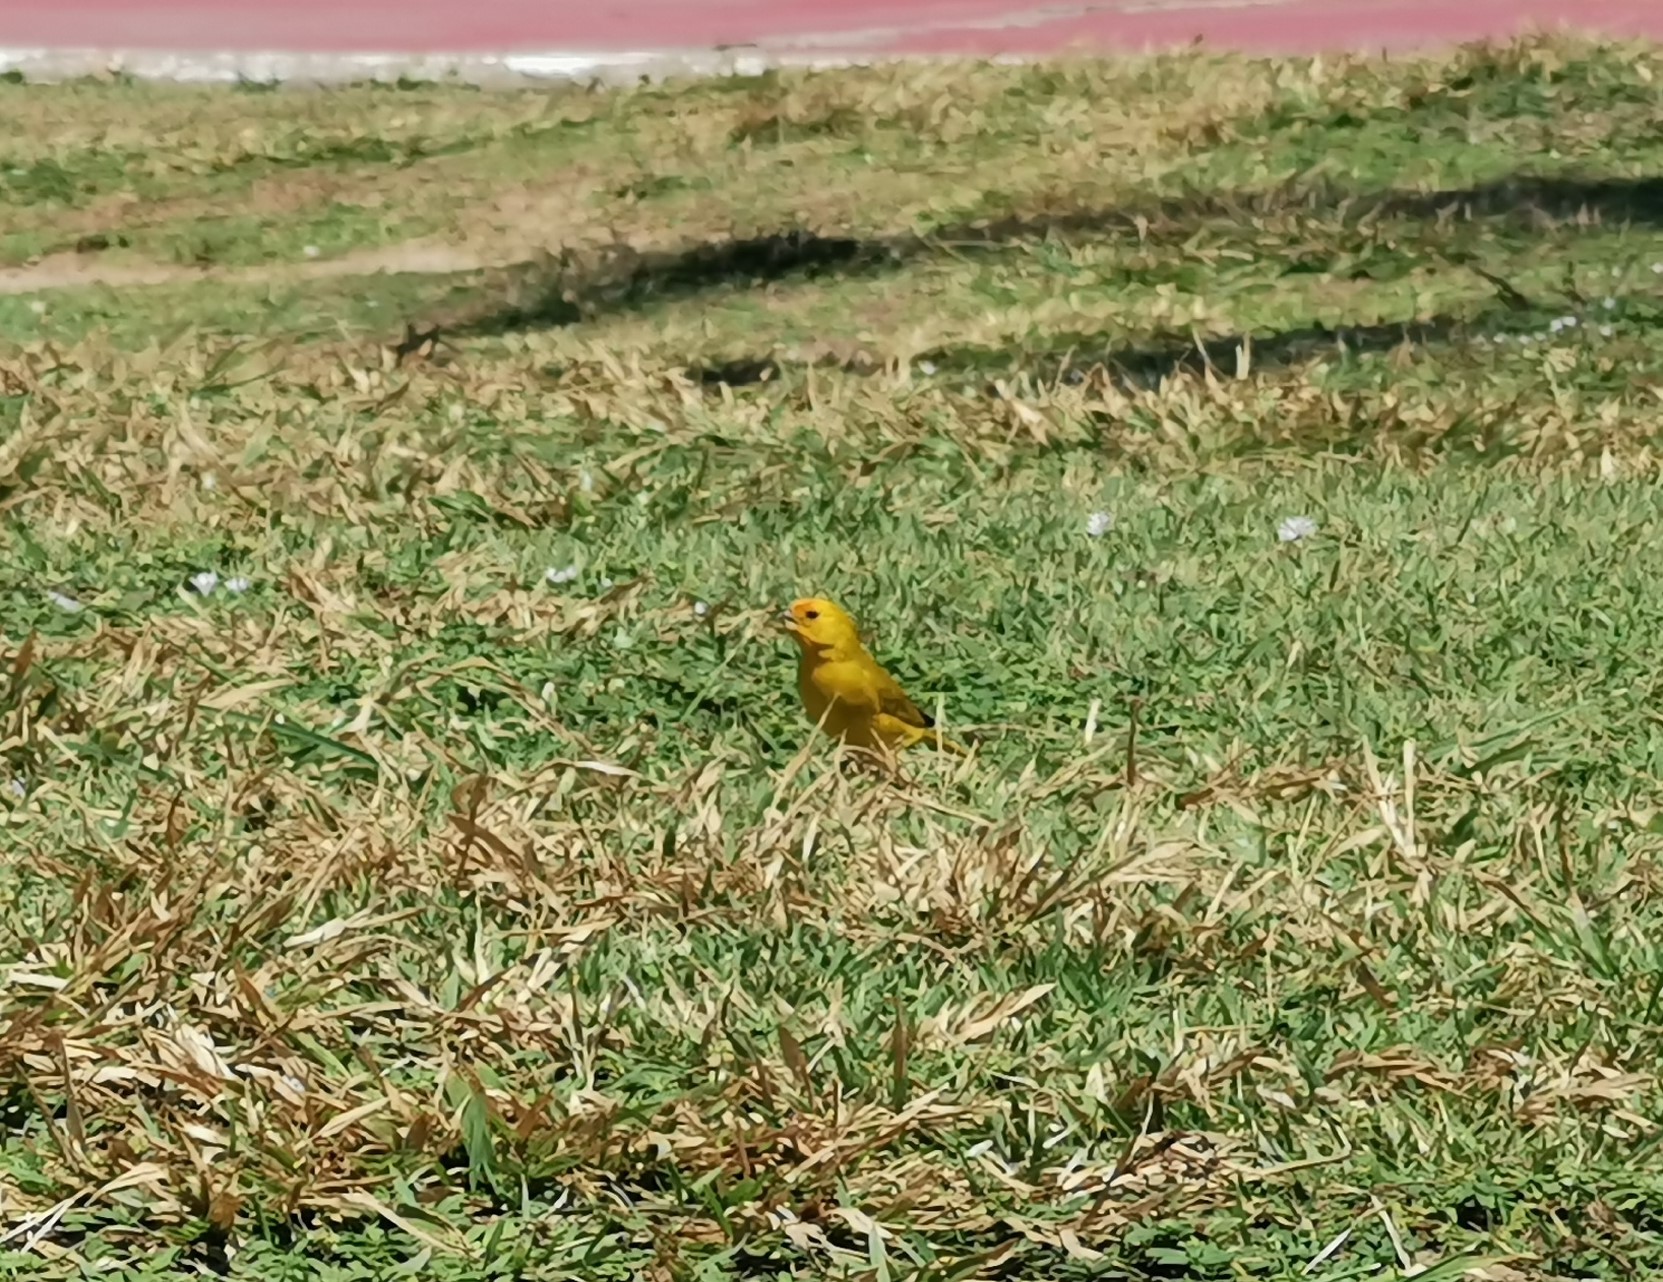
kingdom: Animalia
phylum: Chordata
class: Aves
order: Passeriformes
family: Thraupidae
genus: Sicalis
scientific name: Sicalis flaveola
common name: Saffron finch
